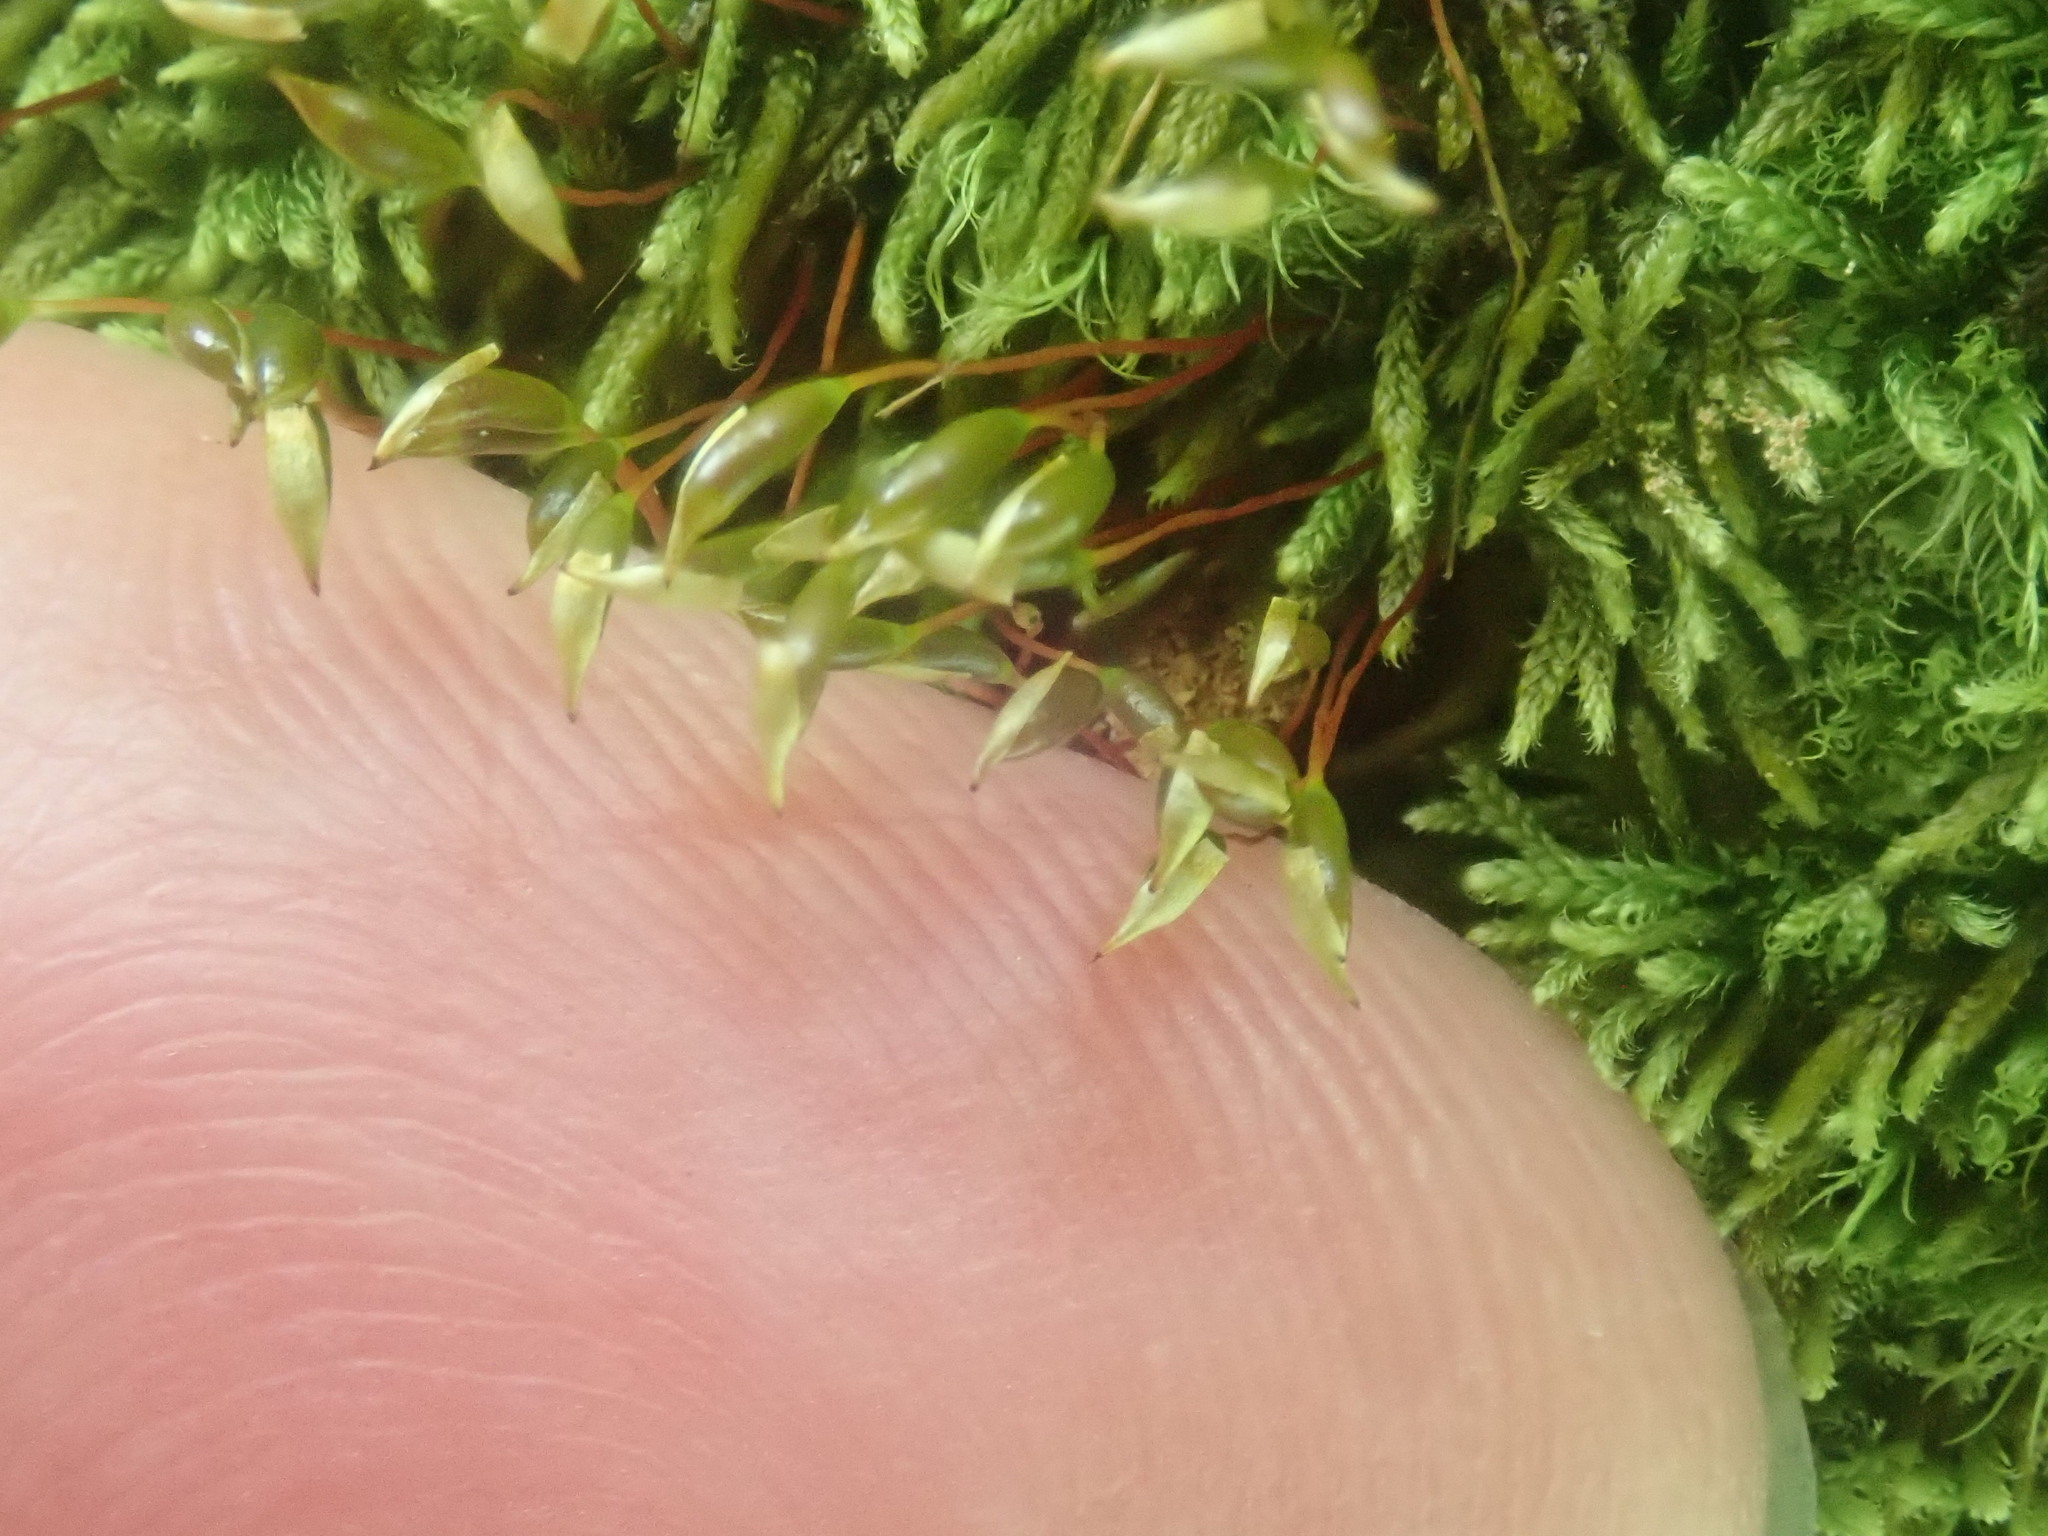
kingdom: Plantae
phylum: Bryophyta
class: Bryopsida
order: Hypnales
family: Callicladiaceae
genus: Callicladium
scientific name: Callicladium imponens
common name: Brocade moss
